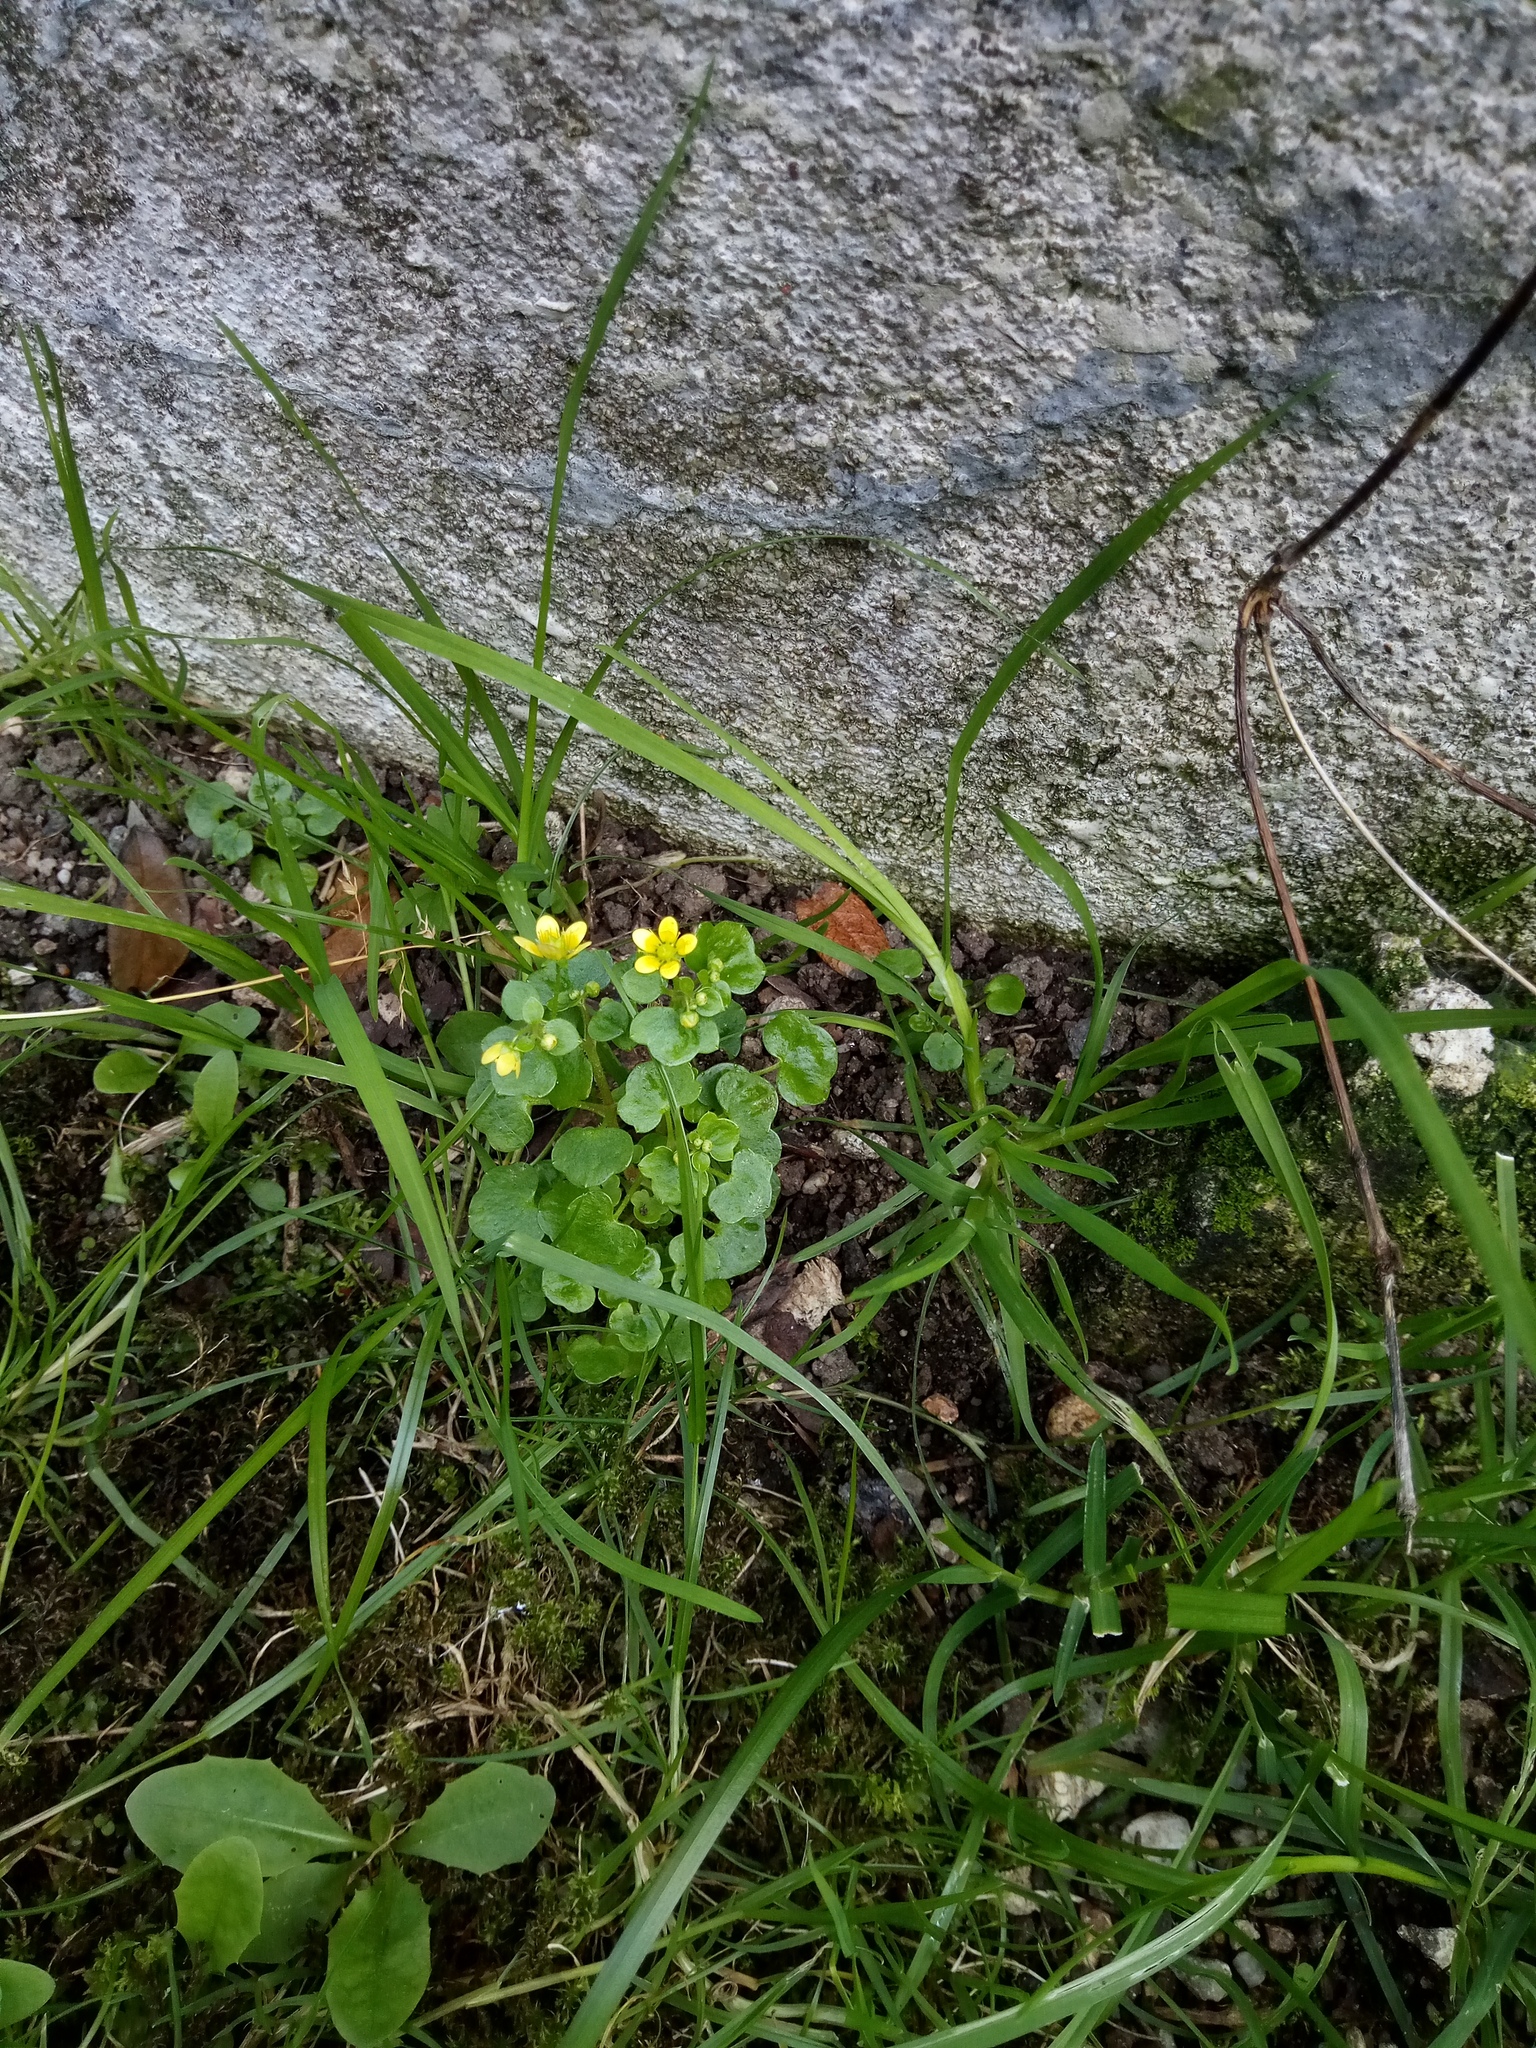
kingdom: Plantae
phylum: Tracheophyta
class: Magnoliopsida
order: Saxifragales
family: Saxifragaceae
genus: Saxifraga
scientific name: Saxifraga cymbalaria
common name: Celandine saxifrage
